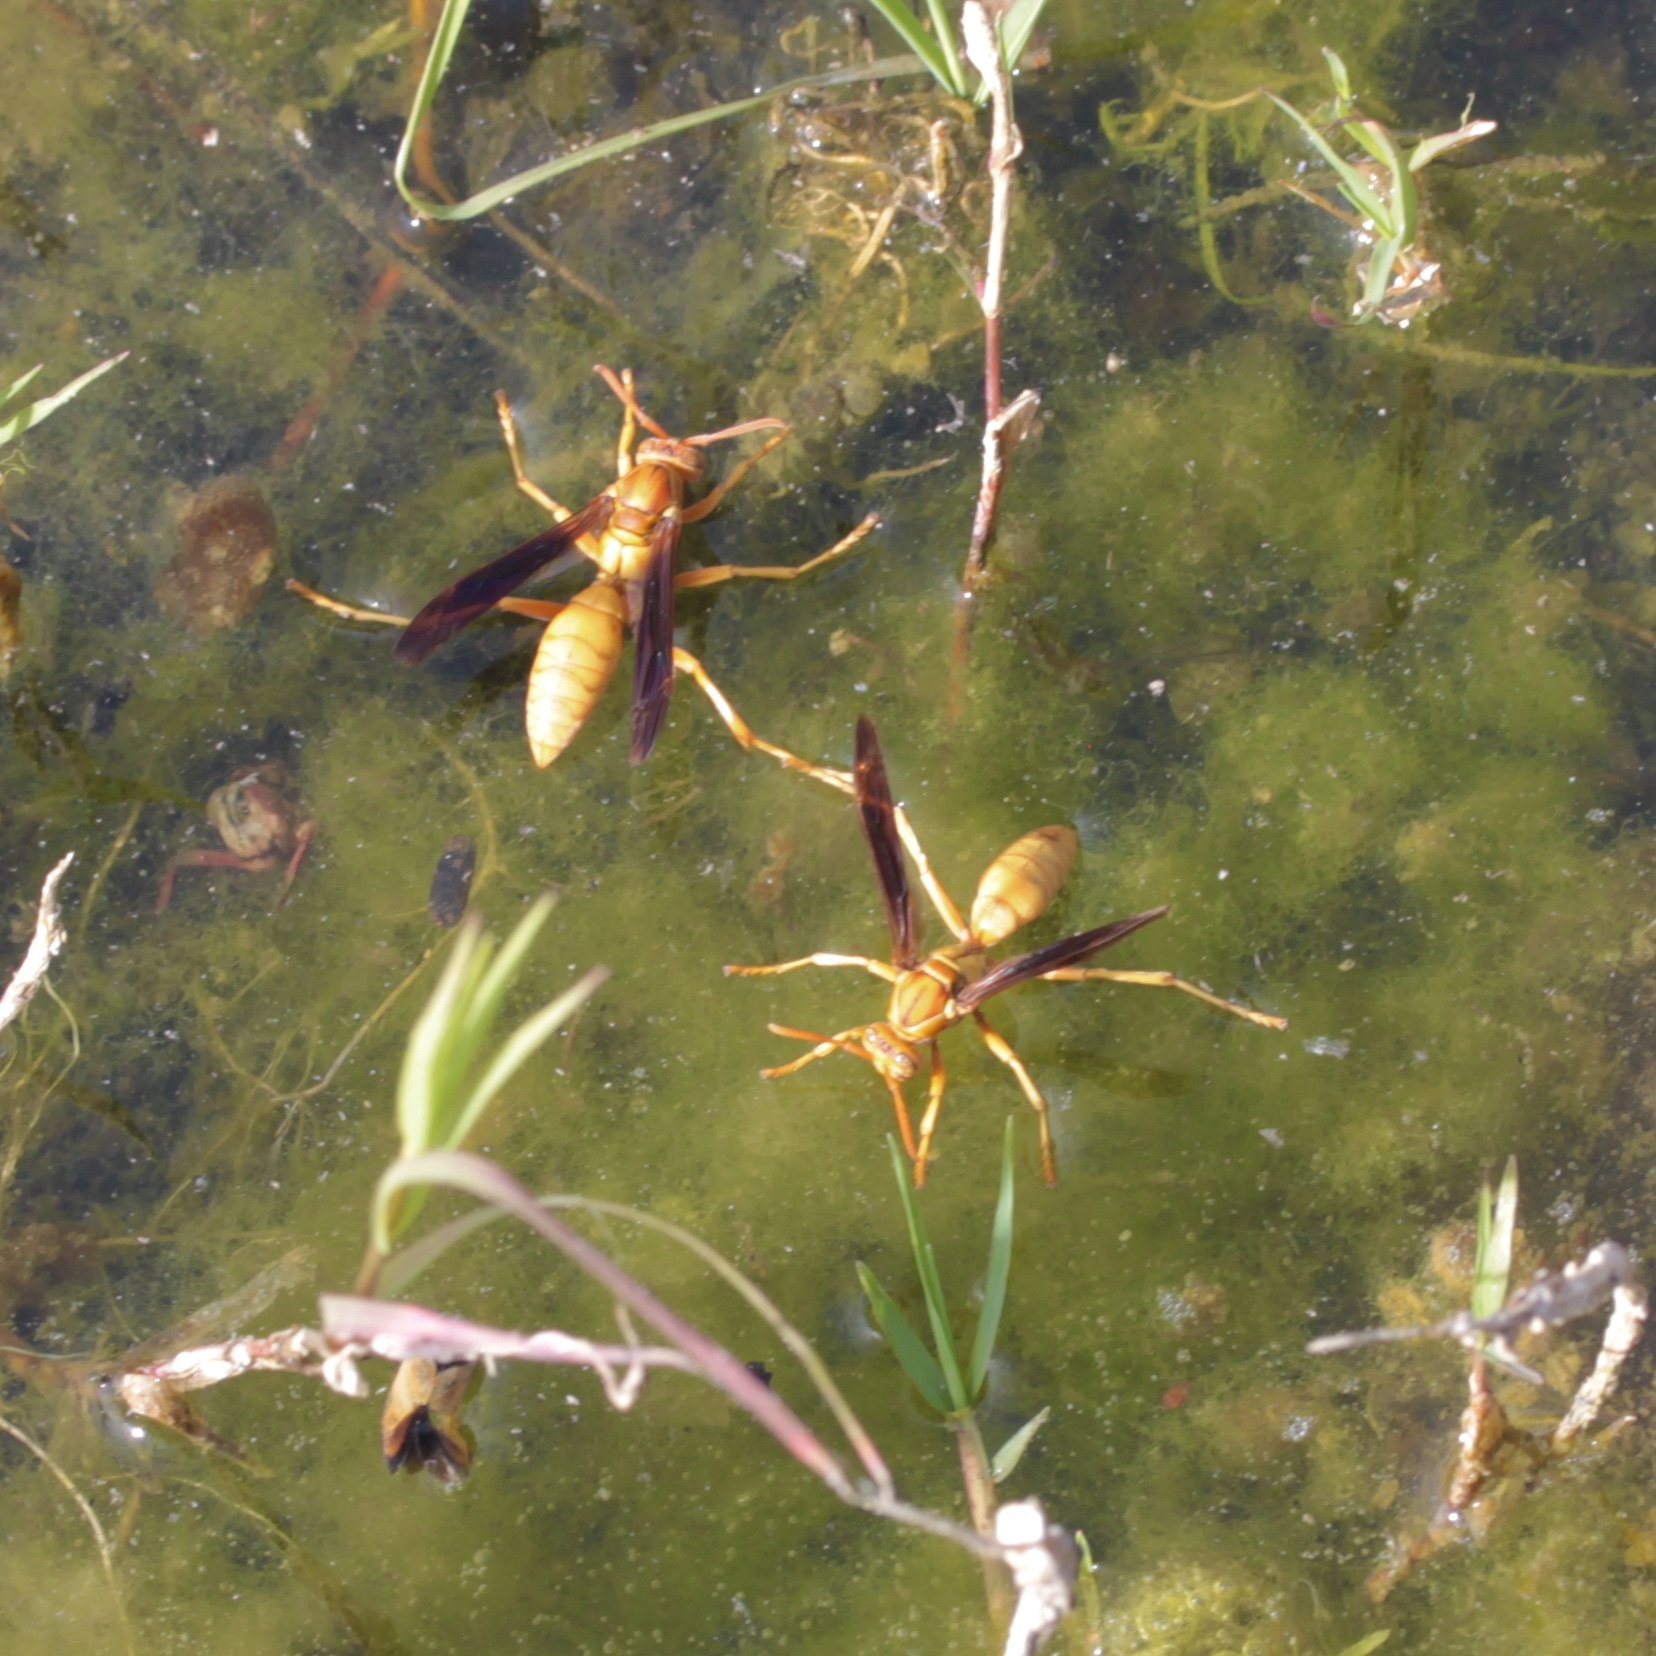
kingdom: Animalia
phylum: Arthropoda
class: Insecta
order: Hymenoptera
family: Eumenidae
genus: Polistes
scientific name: Polistes flavus
